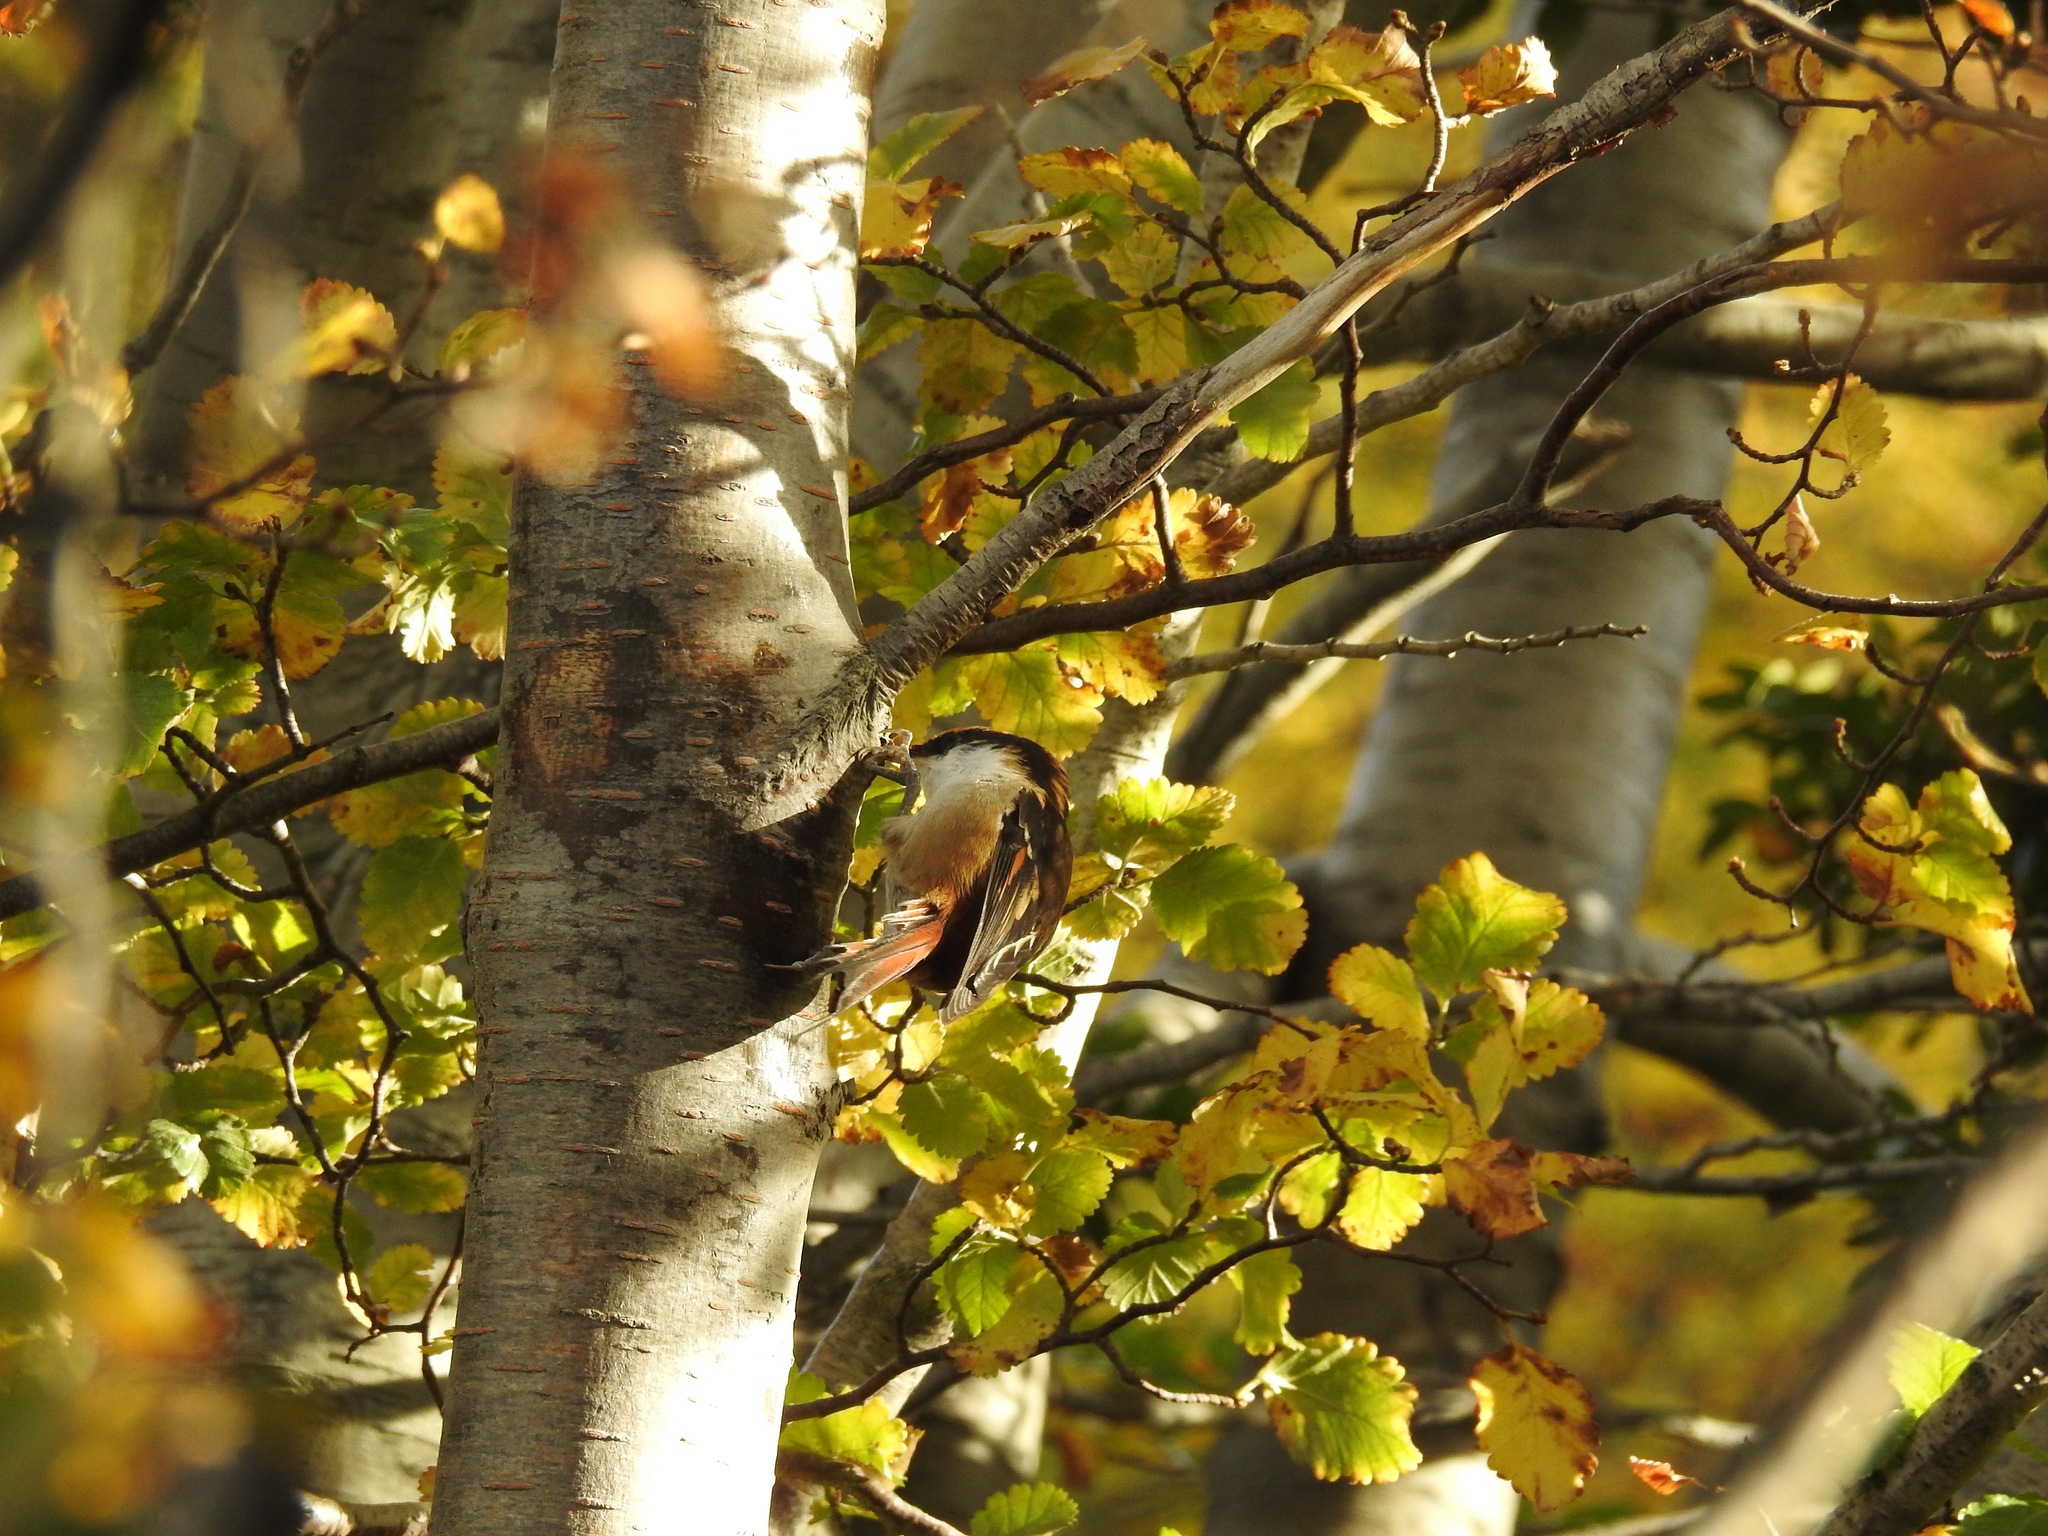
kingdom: Animalia
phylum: Chordata
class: Aves
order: Passeriformes
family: Furnariidae
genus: Aphrastura
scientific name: Aphrastura spinicauda
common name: Thorn-tailed rayadito
